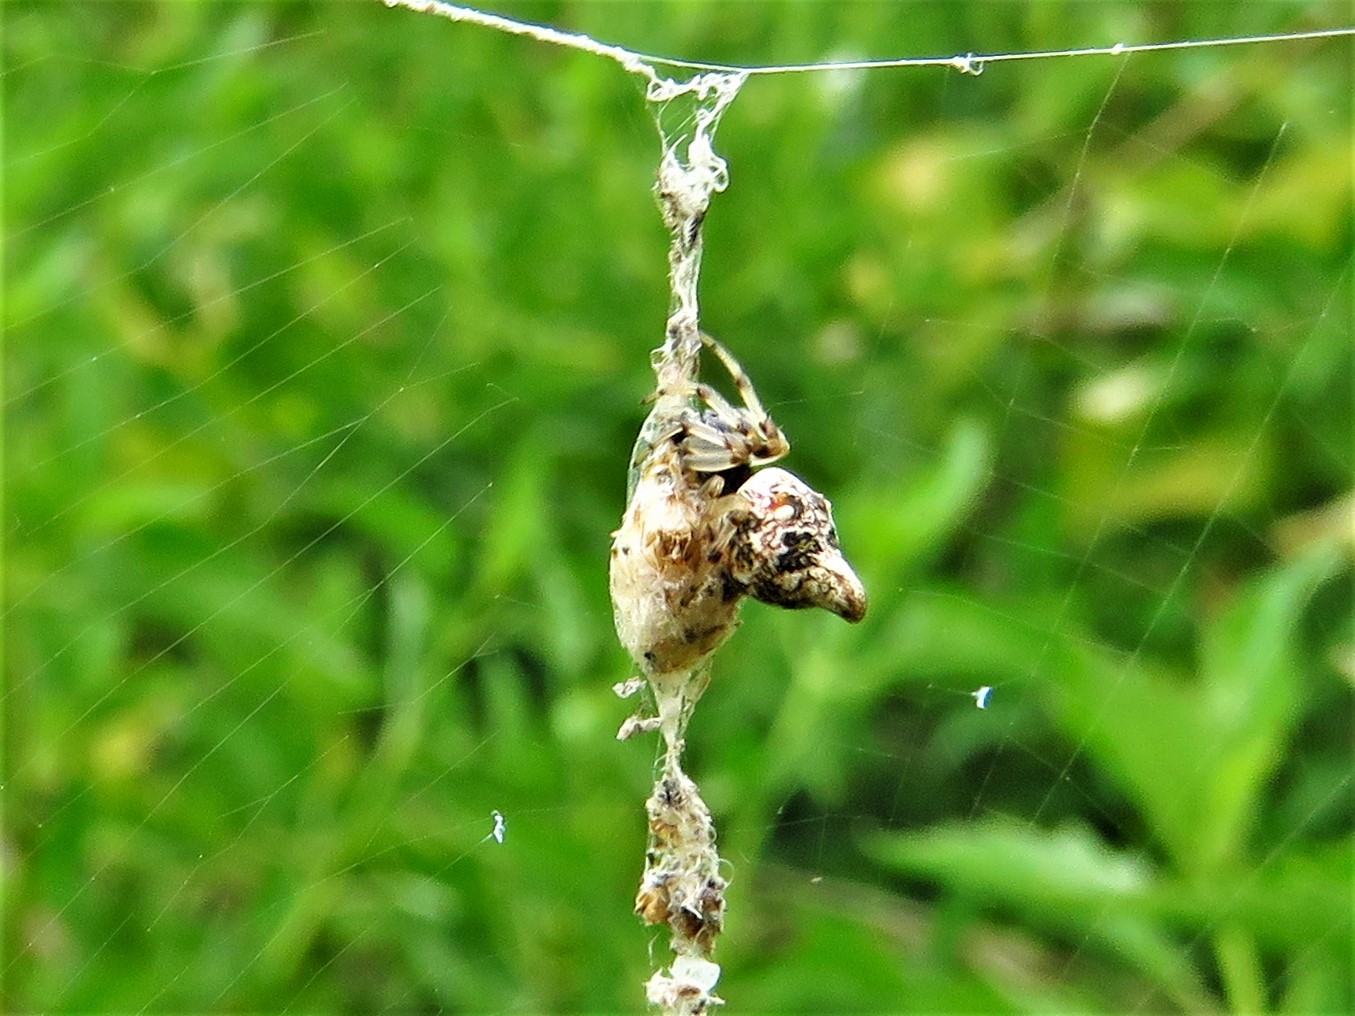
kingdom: Animalia
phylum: Arthropoda
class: Arachnida
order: Araneae
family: Araneidae
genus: Cyclosa
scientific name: Cyclosa turbinata
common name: Orb weavers
